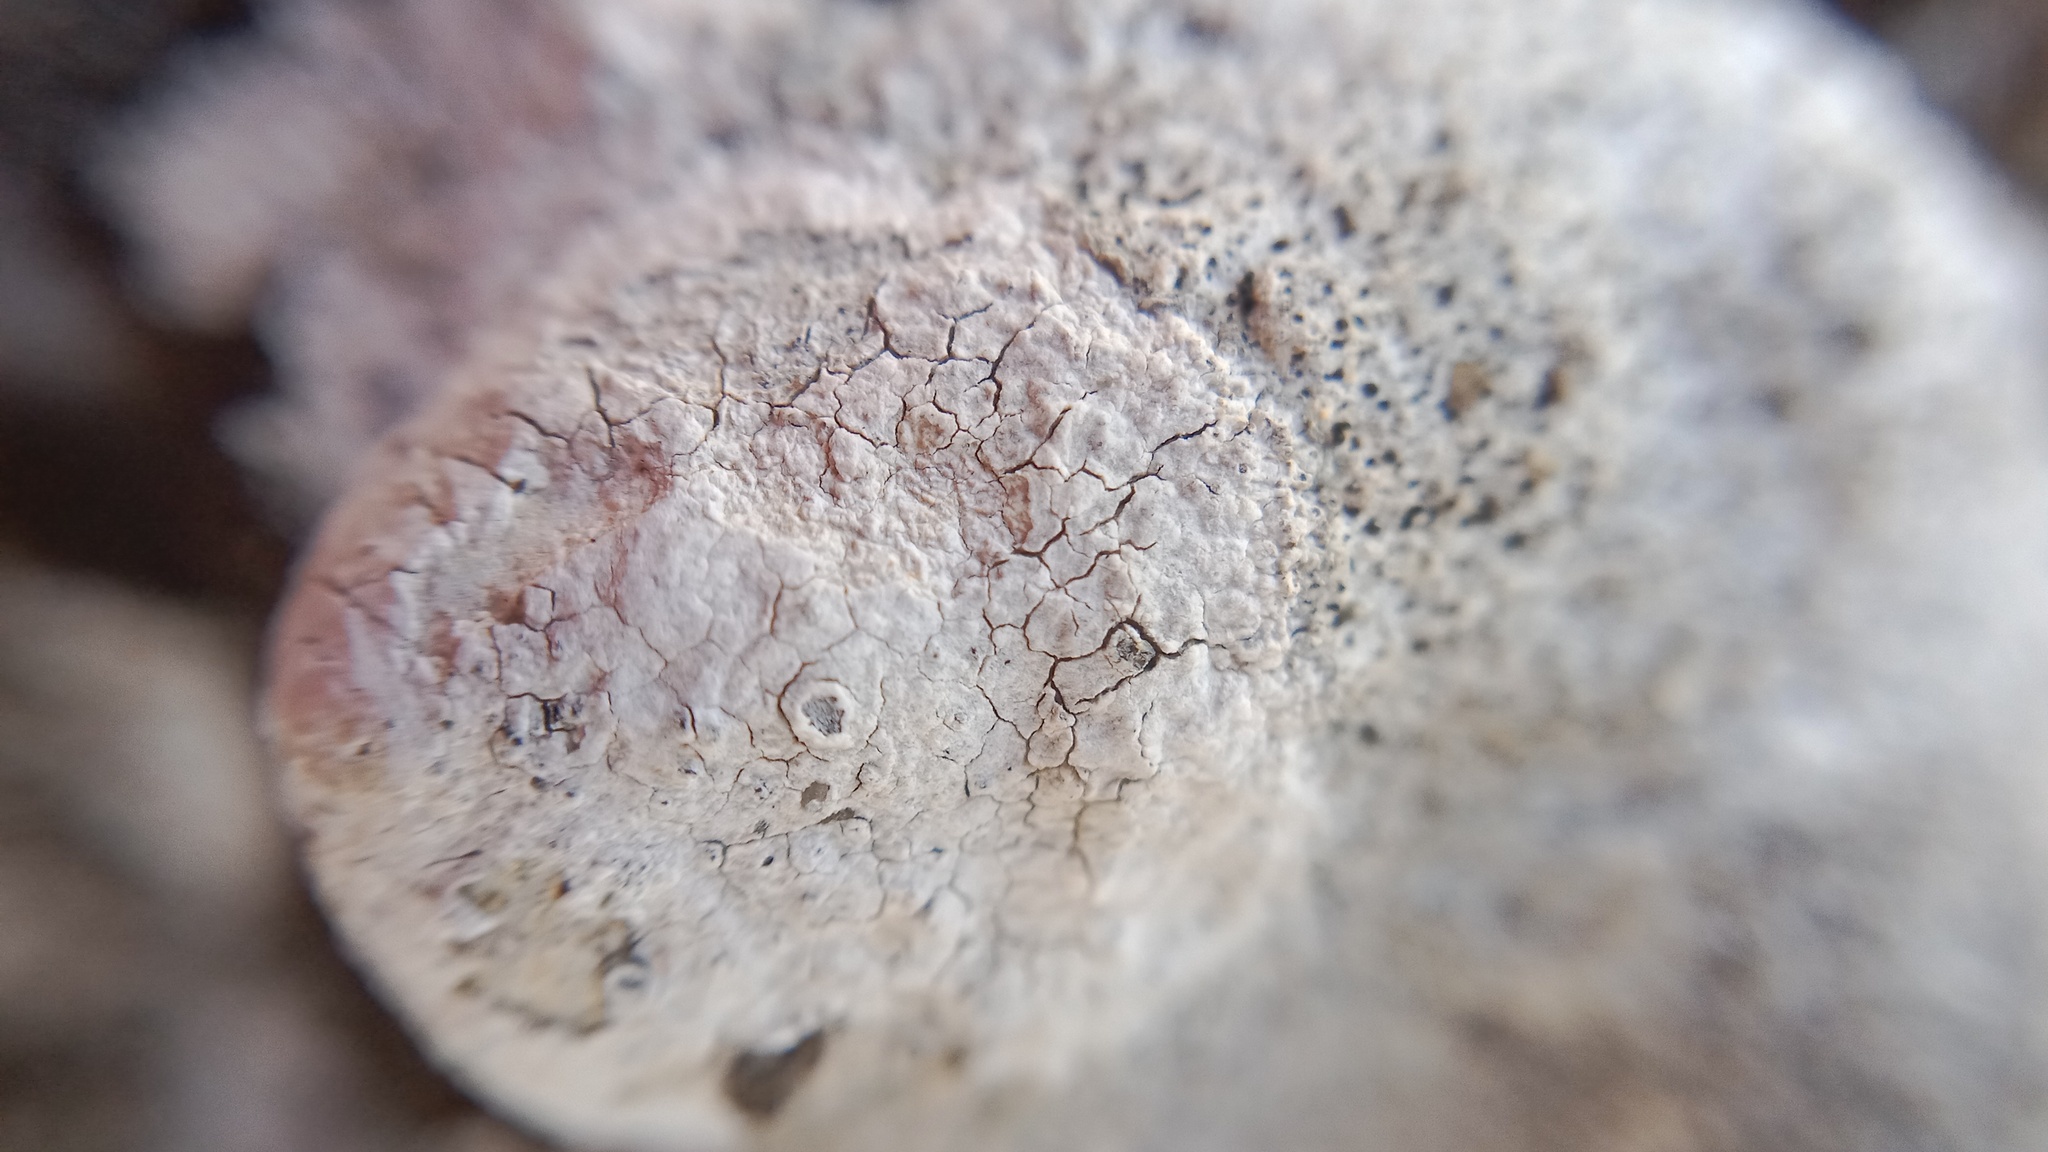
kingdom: Fungi
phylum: Ascomycota
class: Lecanoromycetes
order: Pertusariales
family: Megasporaceae
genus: Circinaria
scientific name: Circinaria calcarea
